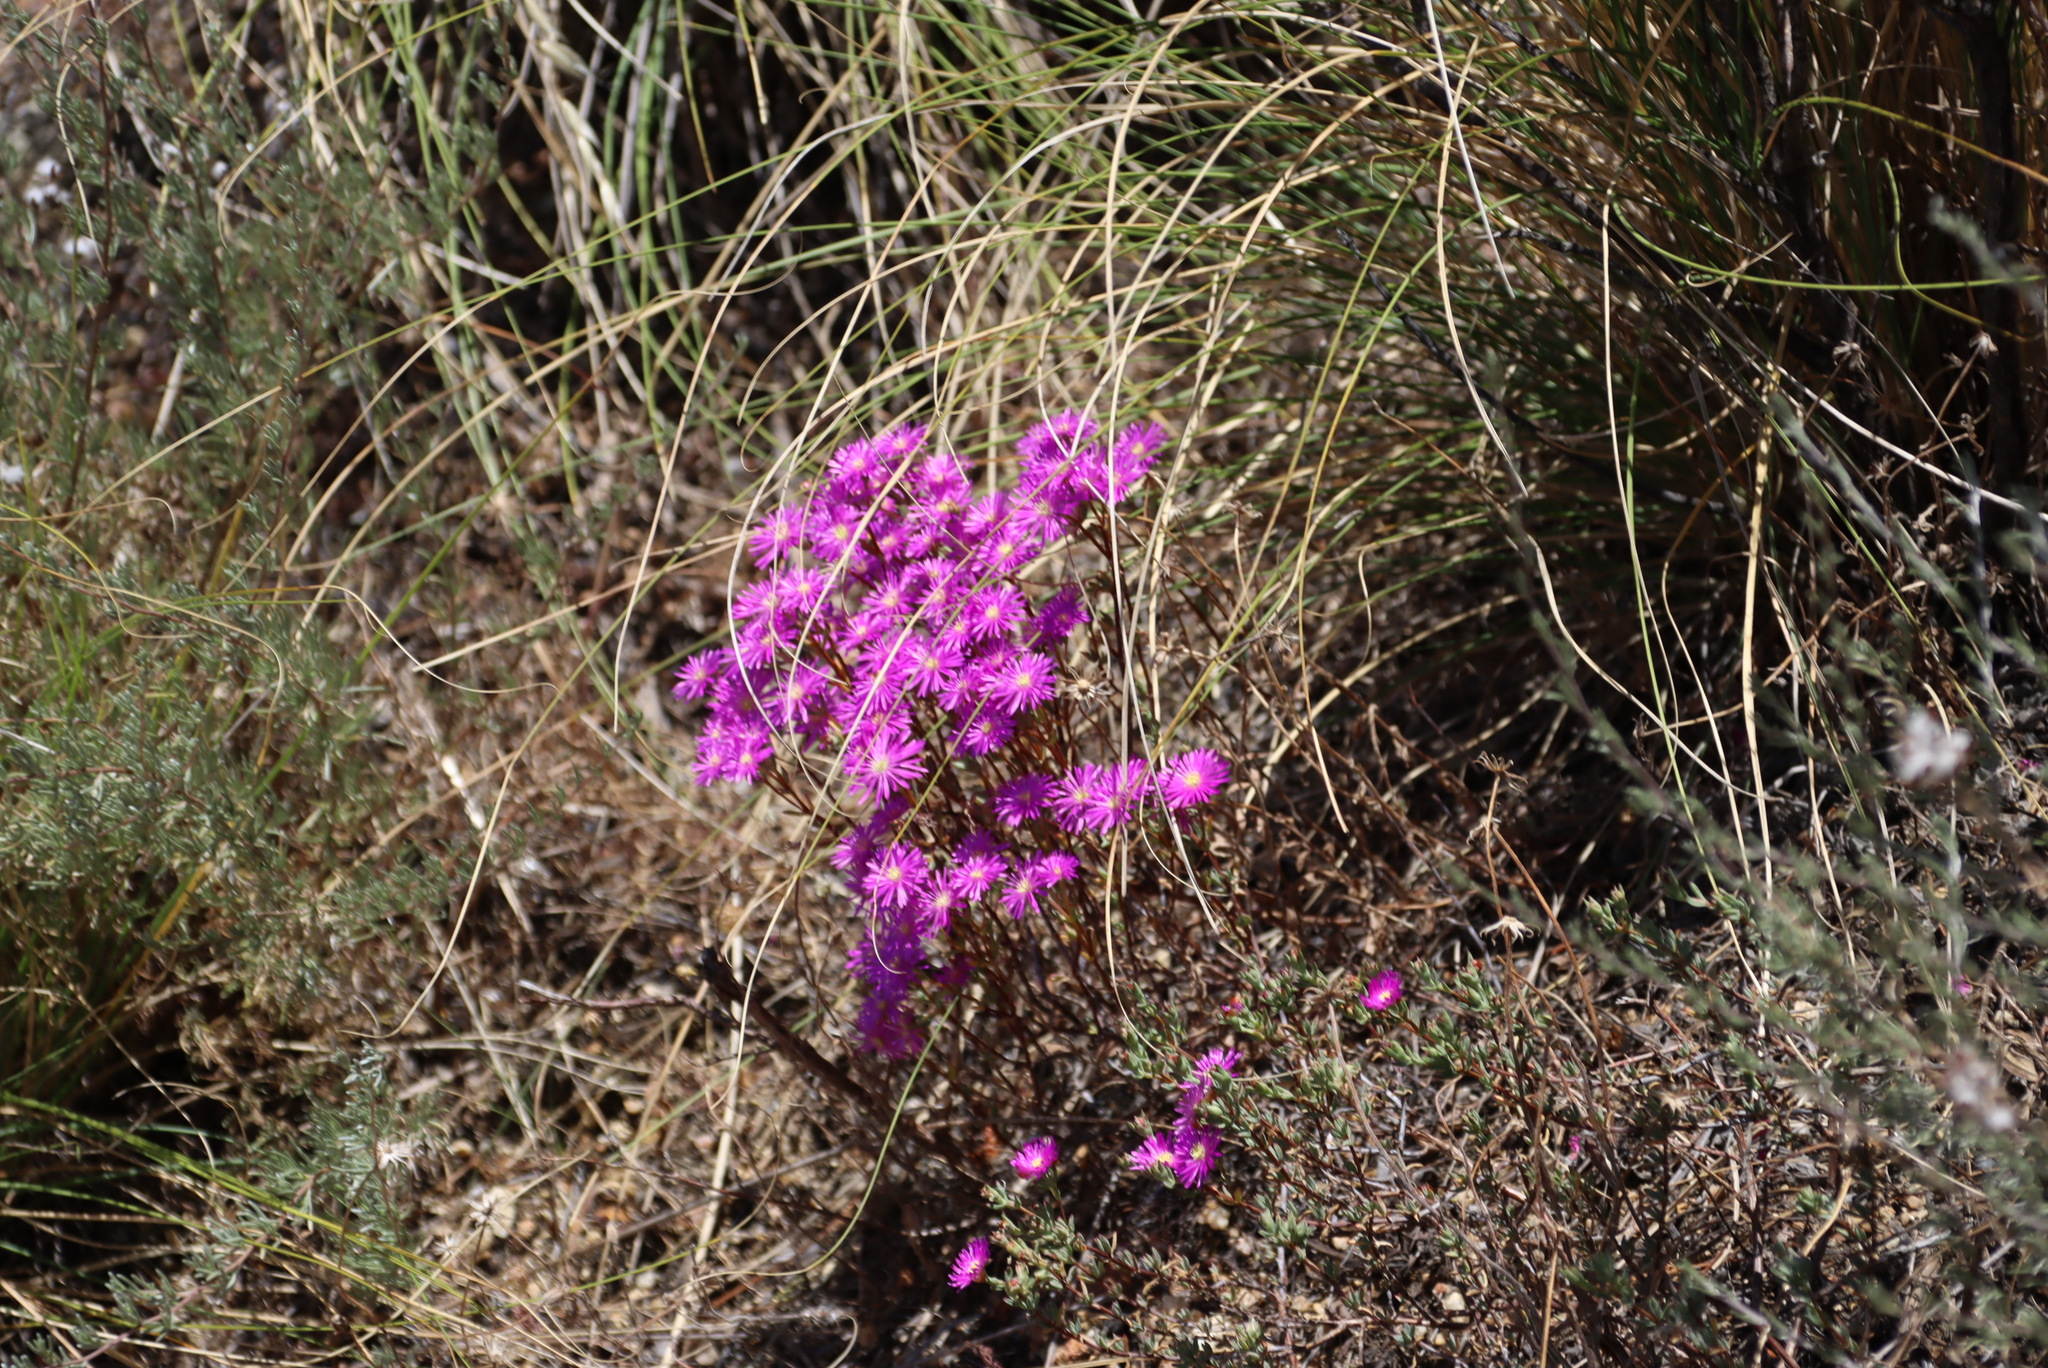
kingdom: Plantae
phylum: Tracheophyta
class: Magnoliopsida
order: Caryophyllales
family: Aizoaceae
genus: Lampranthus
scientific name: Lampranthus emarginatus
